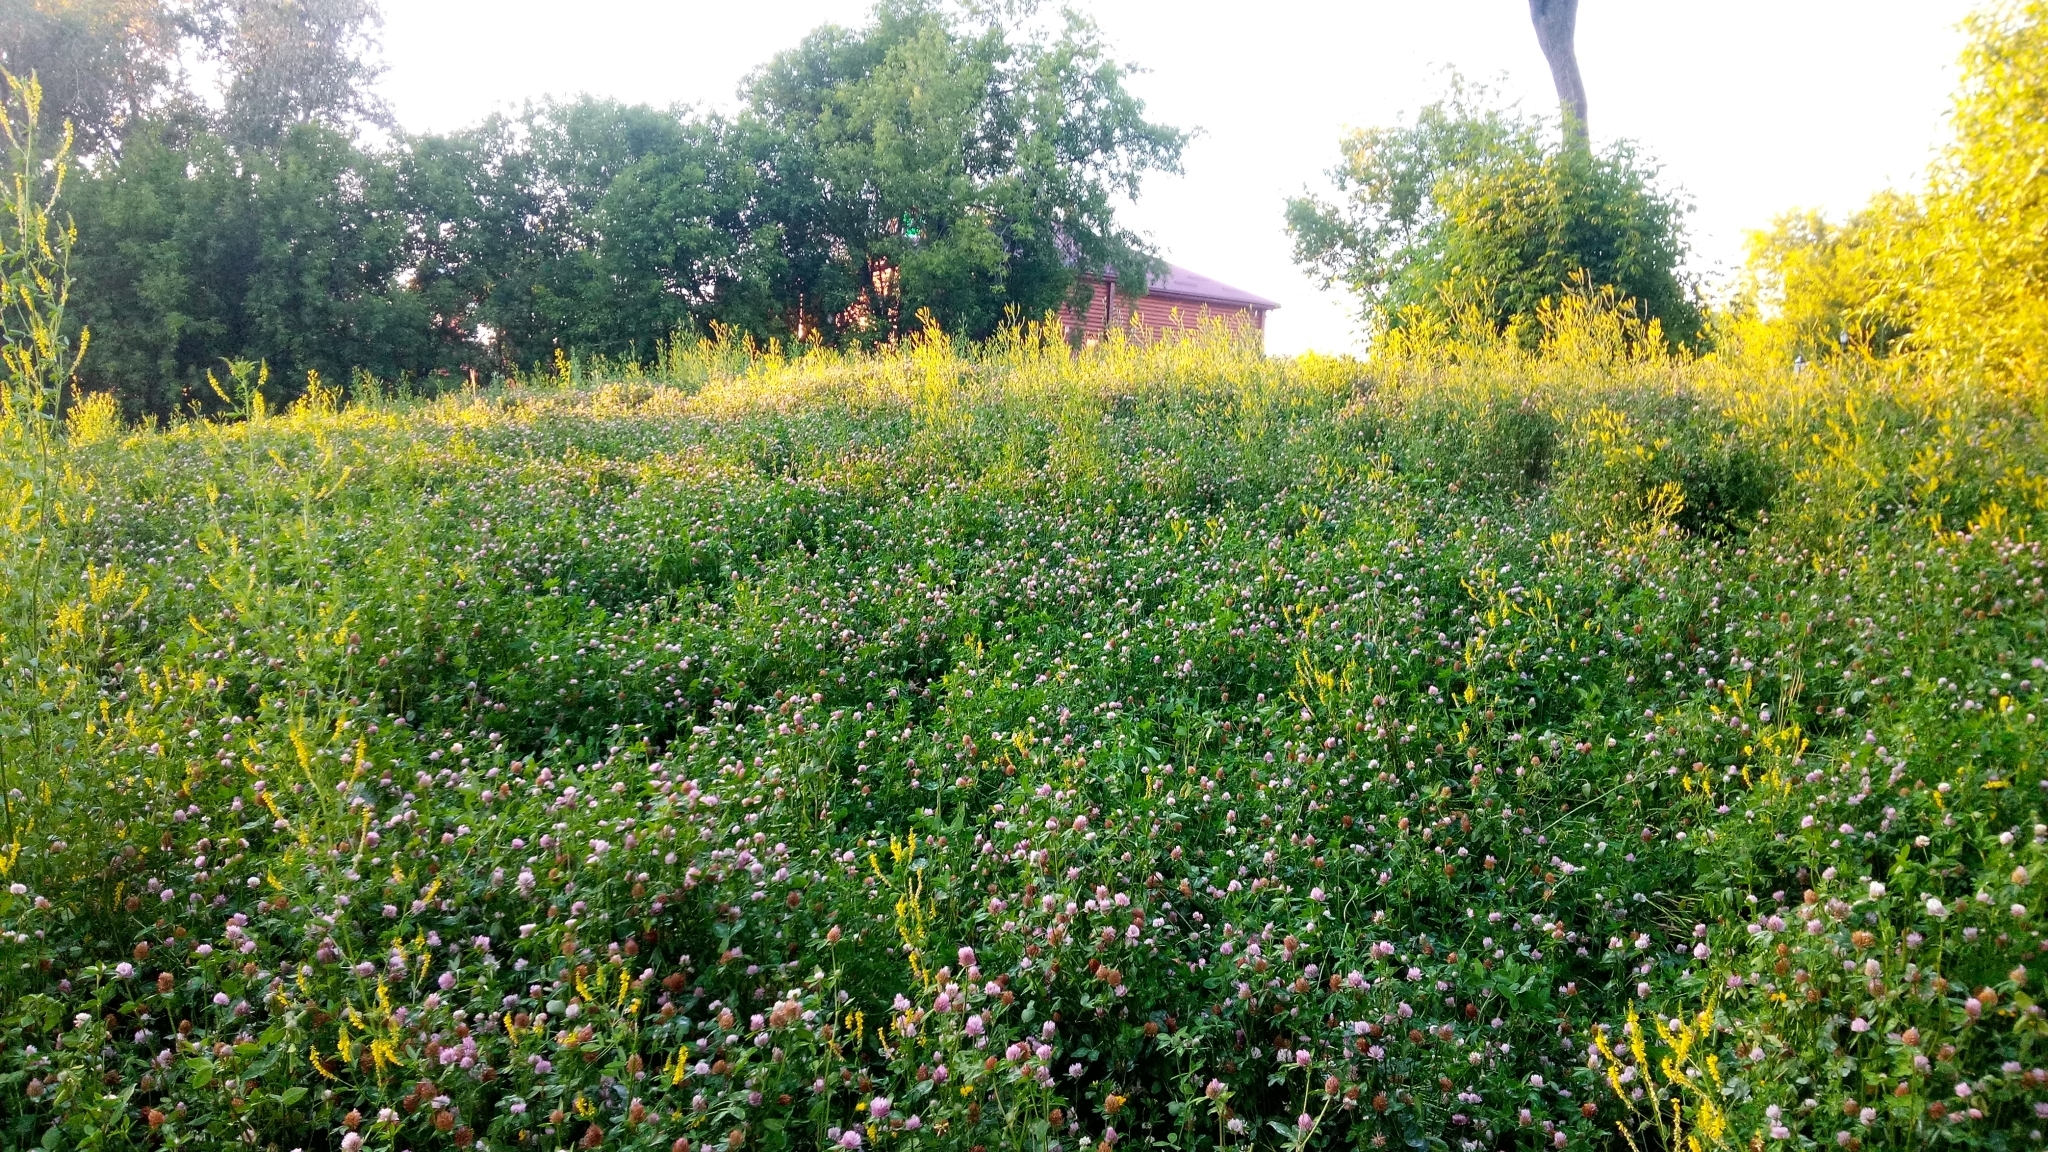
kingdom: Plantae
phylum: Tracheophyta
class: Magnoliopsida
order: Fabales
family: Fabaceae
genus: Melilotus
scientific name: Melilotus officinalis
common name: Sweetclover
